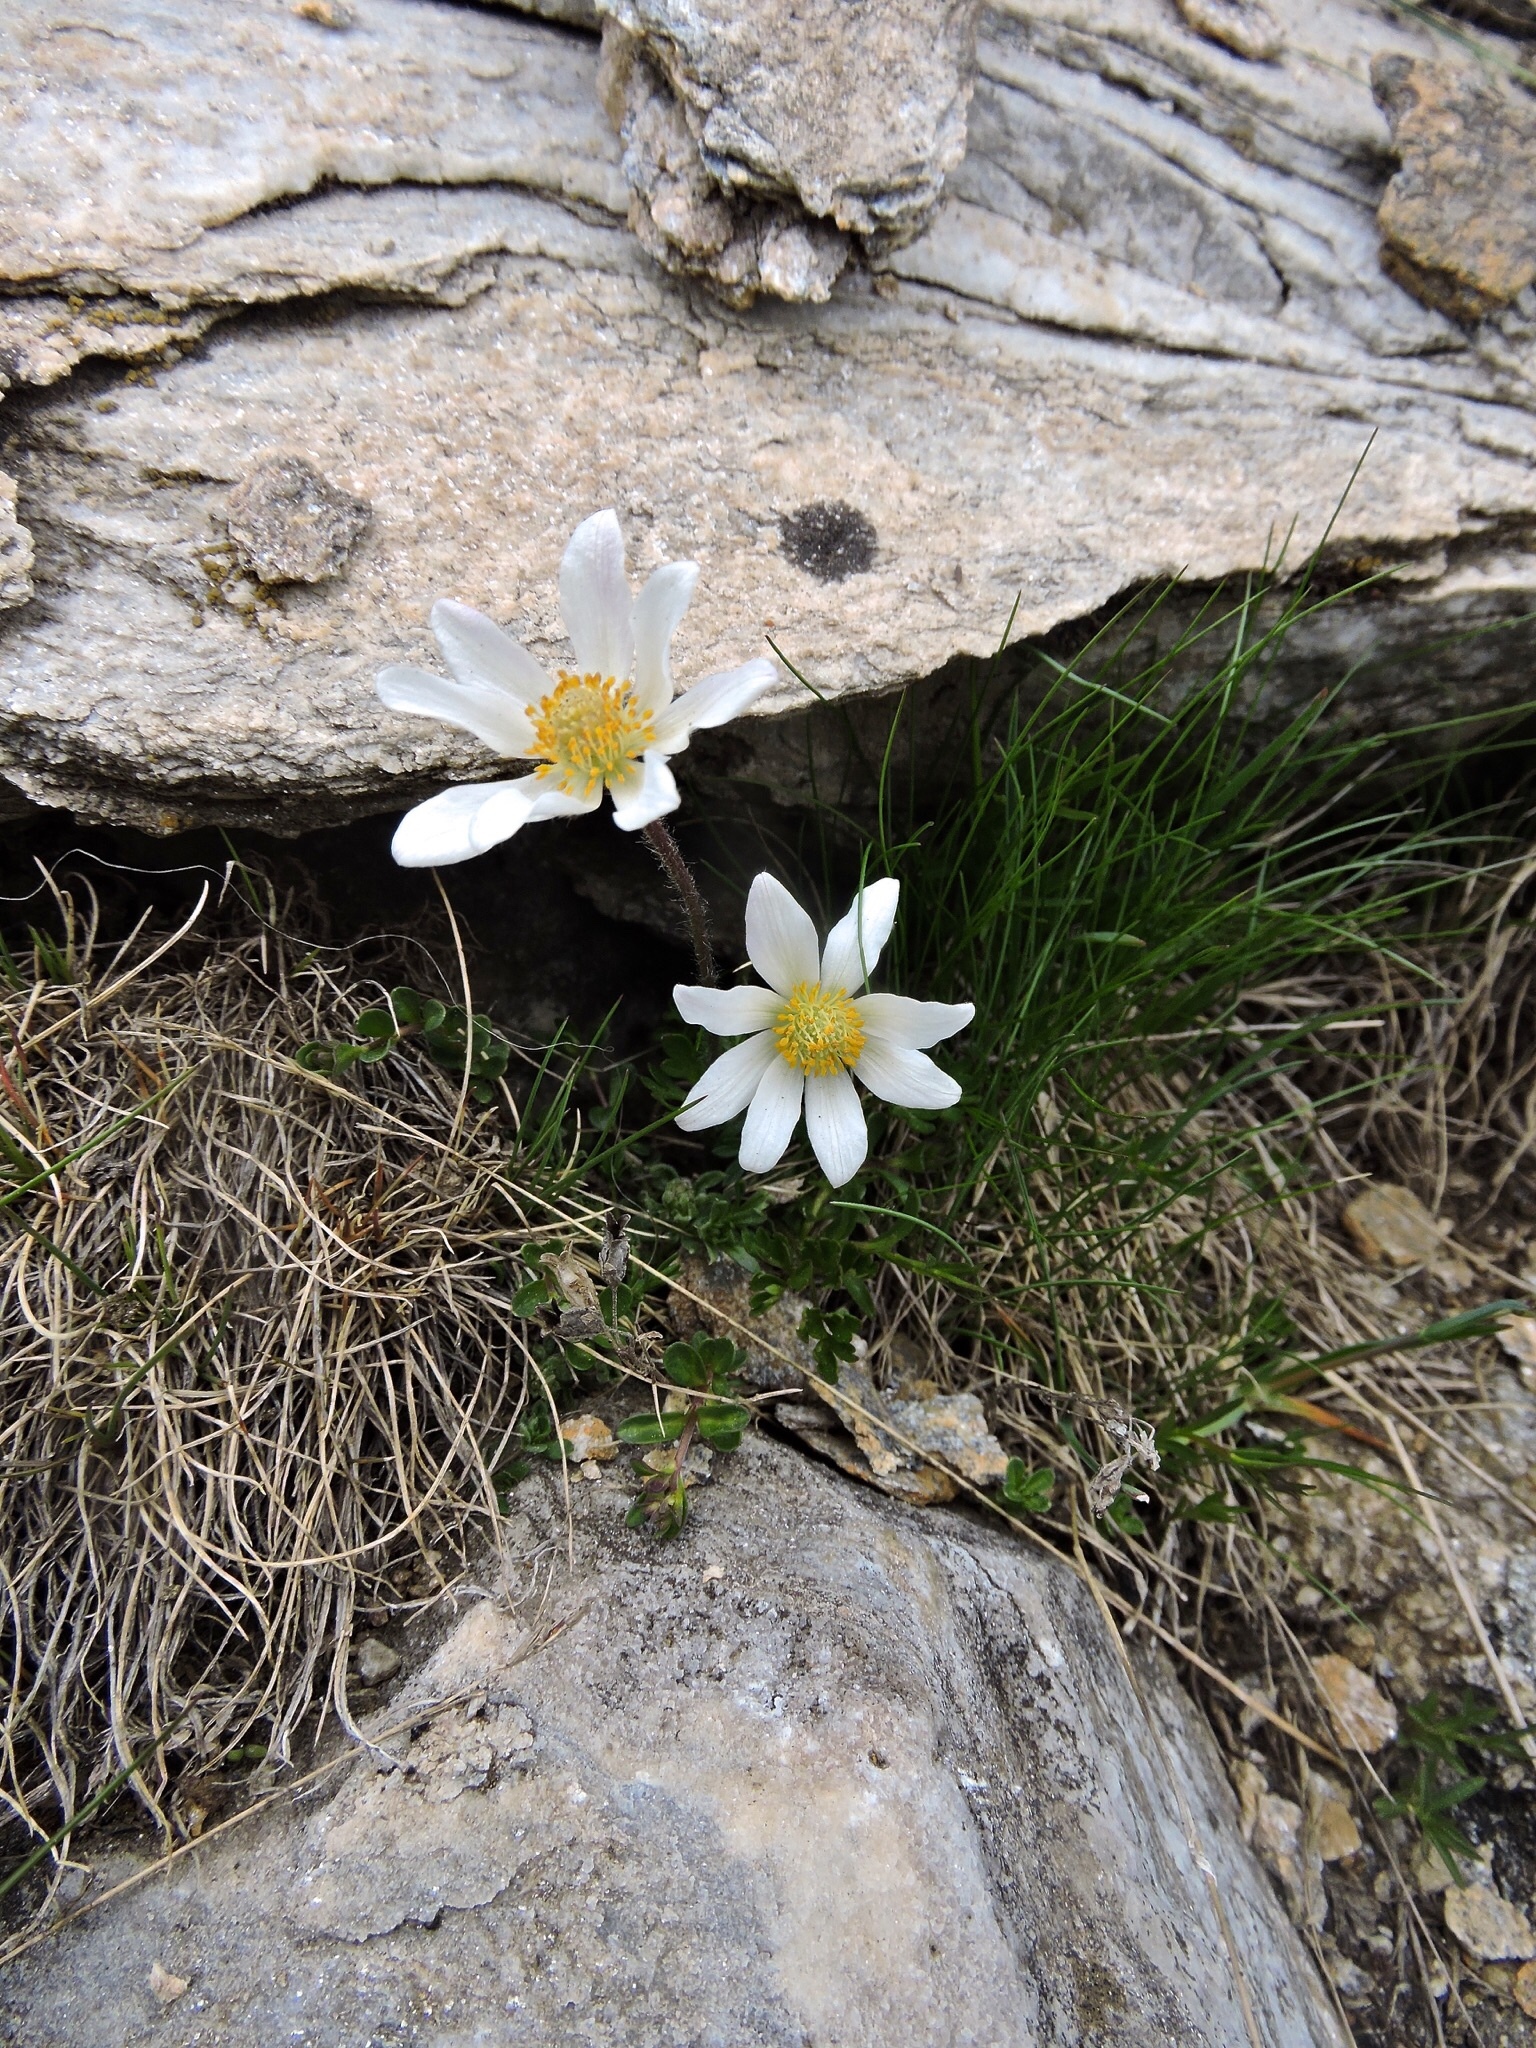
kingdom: Plantae
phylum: Tracheophyta
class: Magnoliopsida
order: Ranunculales
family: Ranunculaceae
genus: Anemone
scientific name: Anemone baldensis
